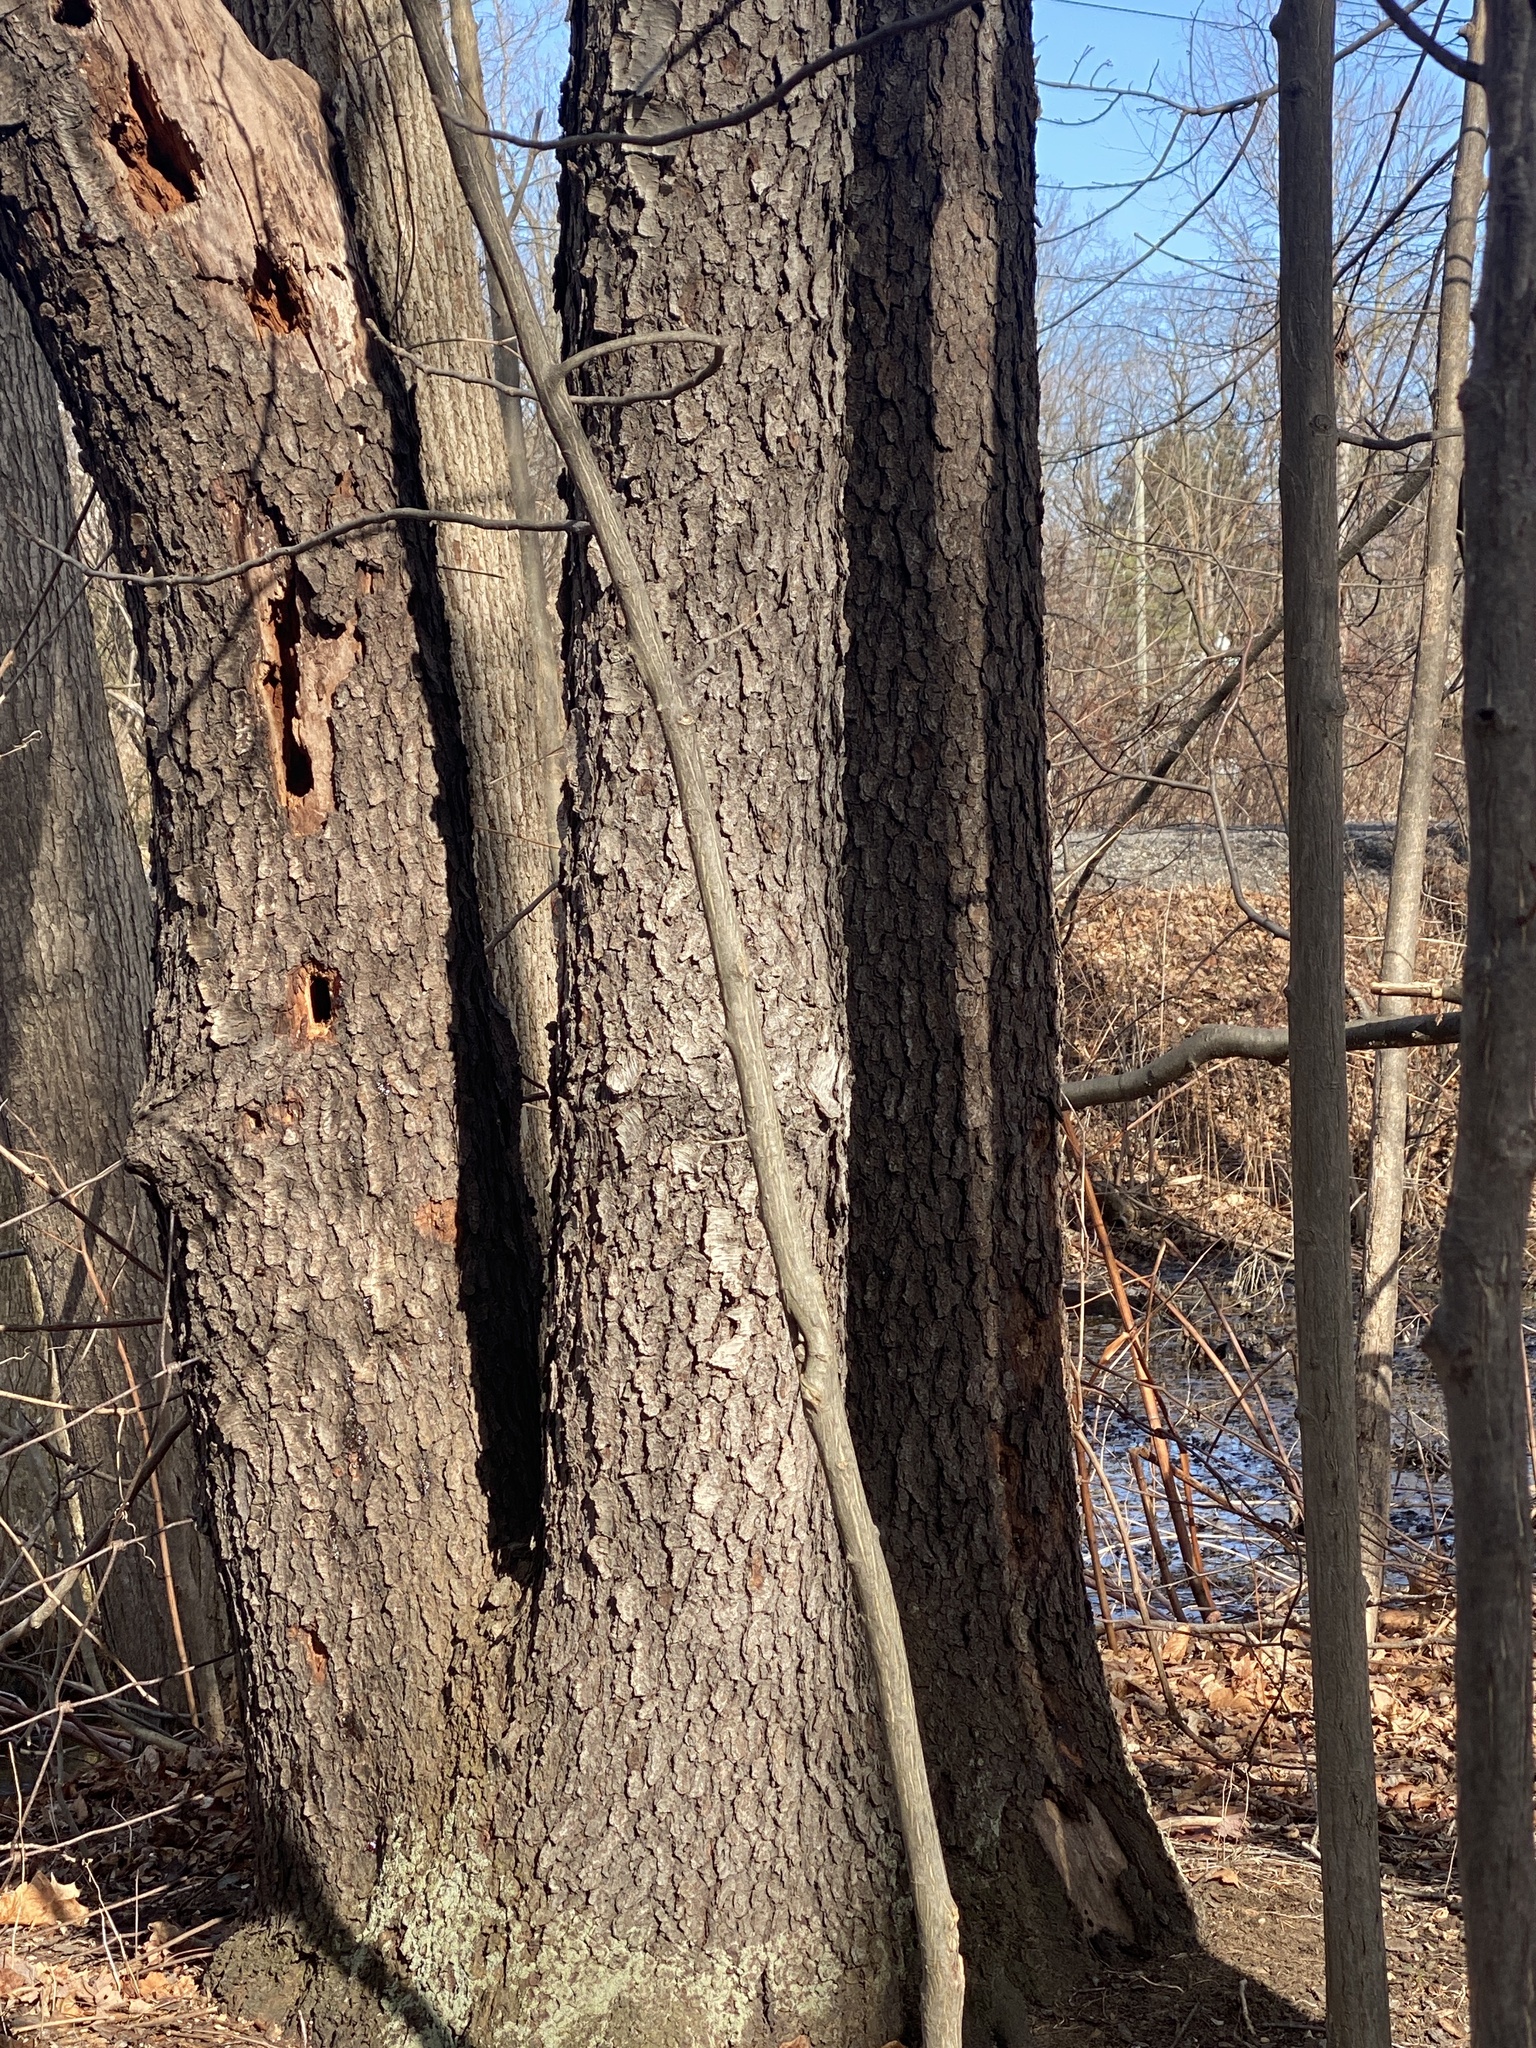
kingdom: Plantae
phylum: Tracheophyta
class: Magnoliopsida
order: Rosales
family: Rosaceae
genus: Prunus
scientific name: Prunus serotina
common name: Black cherry
